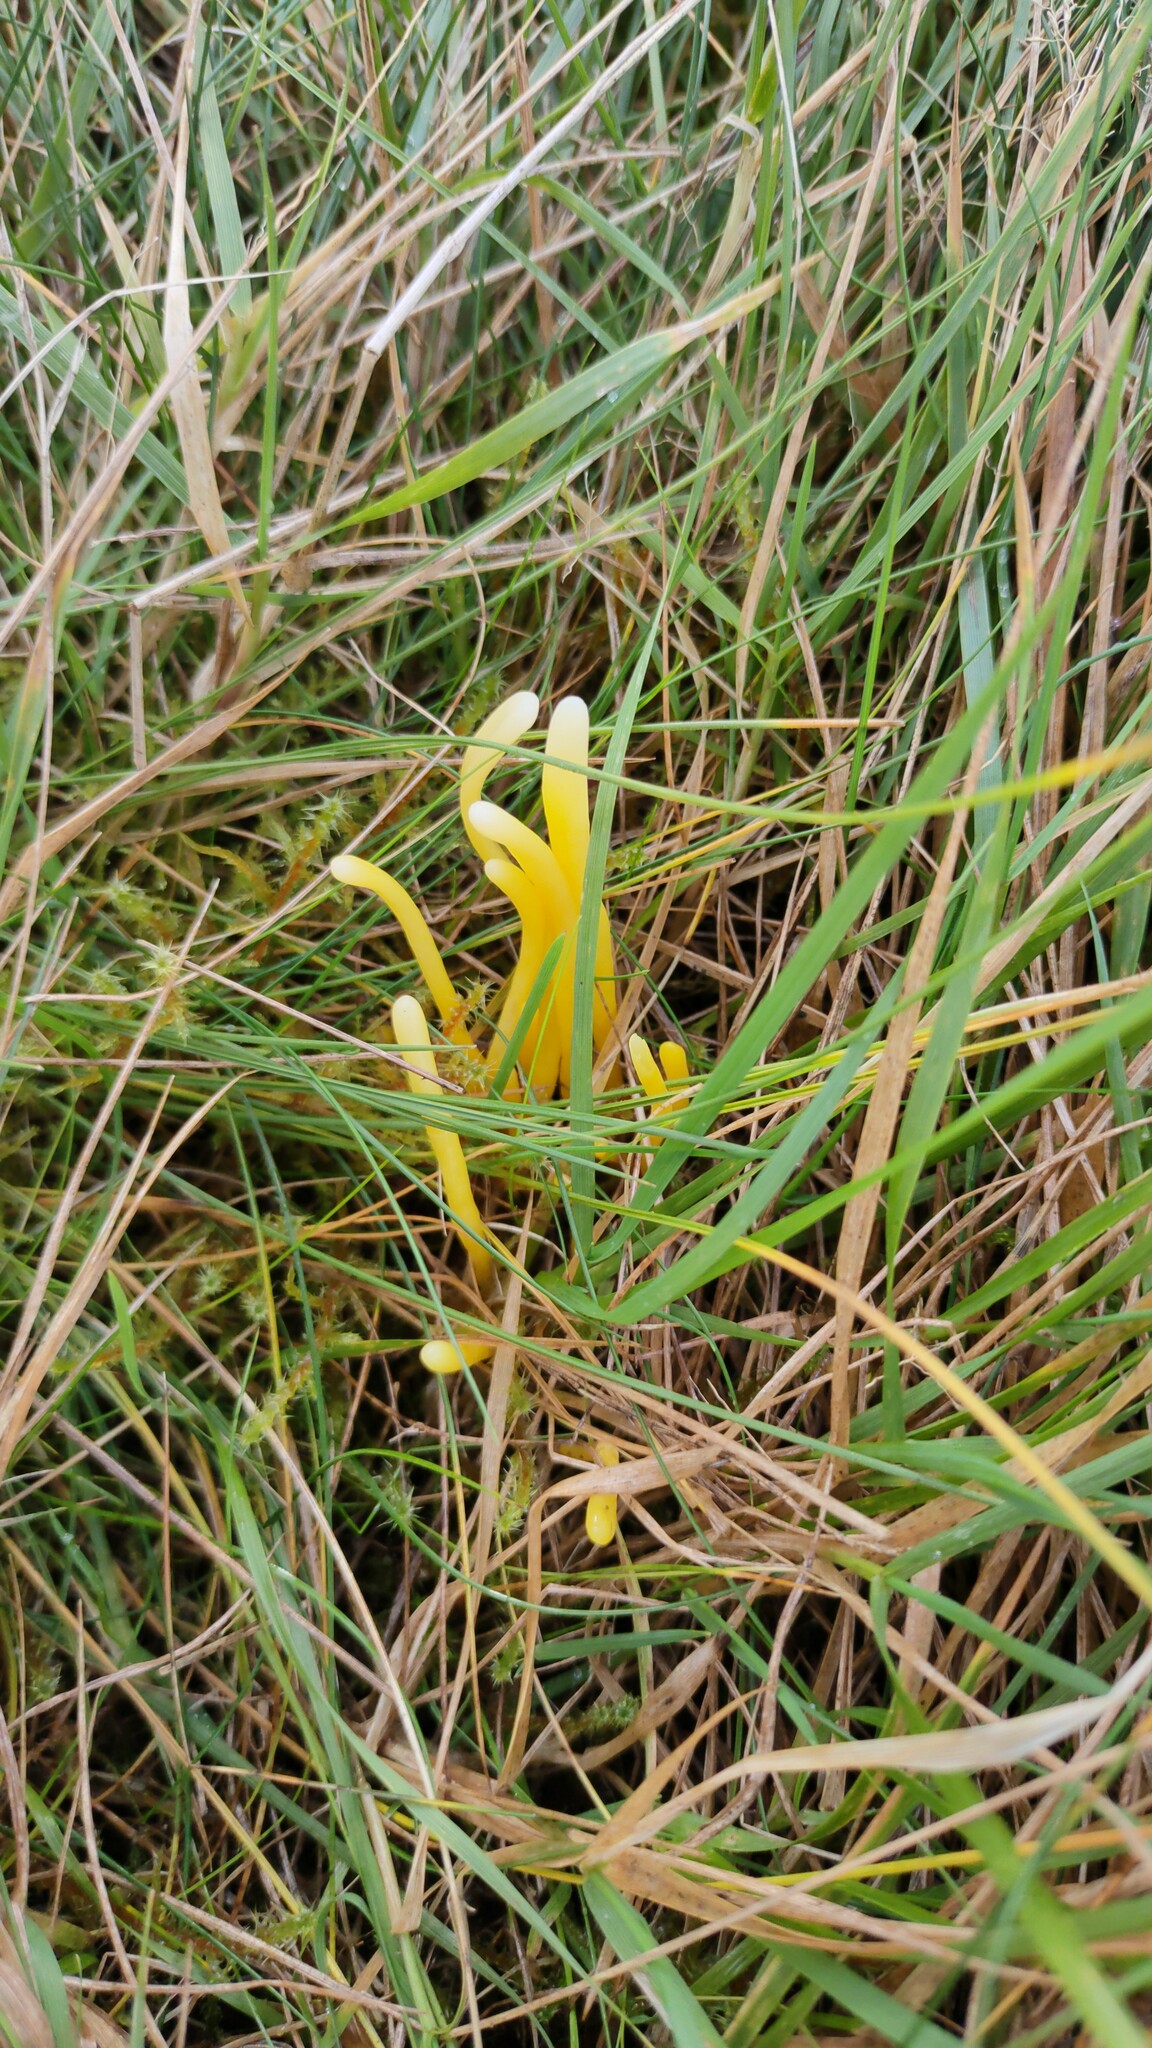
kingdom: Fungi
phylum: Basidiomycota
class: Agaricomycetes
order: Agaricales
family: Clavariaceae
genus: Clavulinopsis
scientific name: Clavulinopsis helvola
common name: Yellow club
